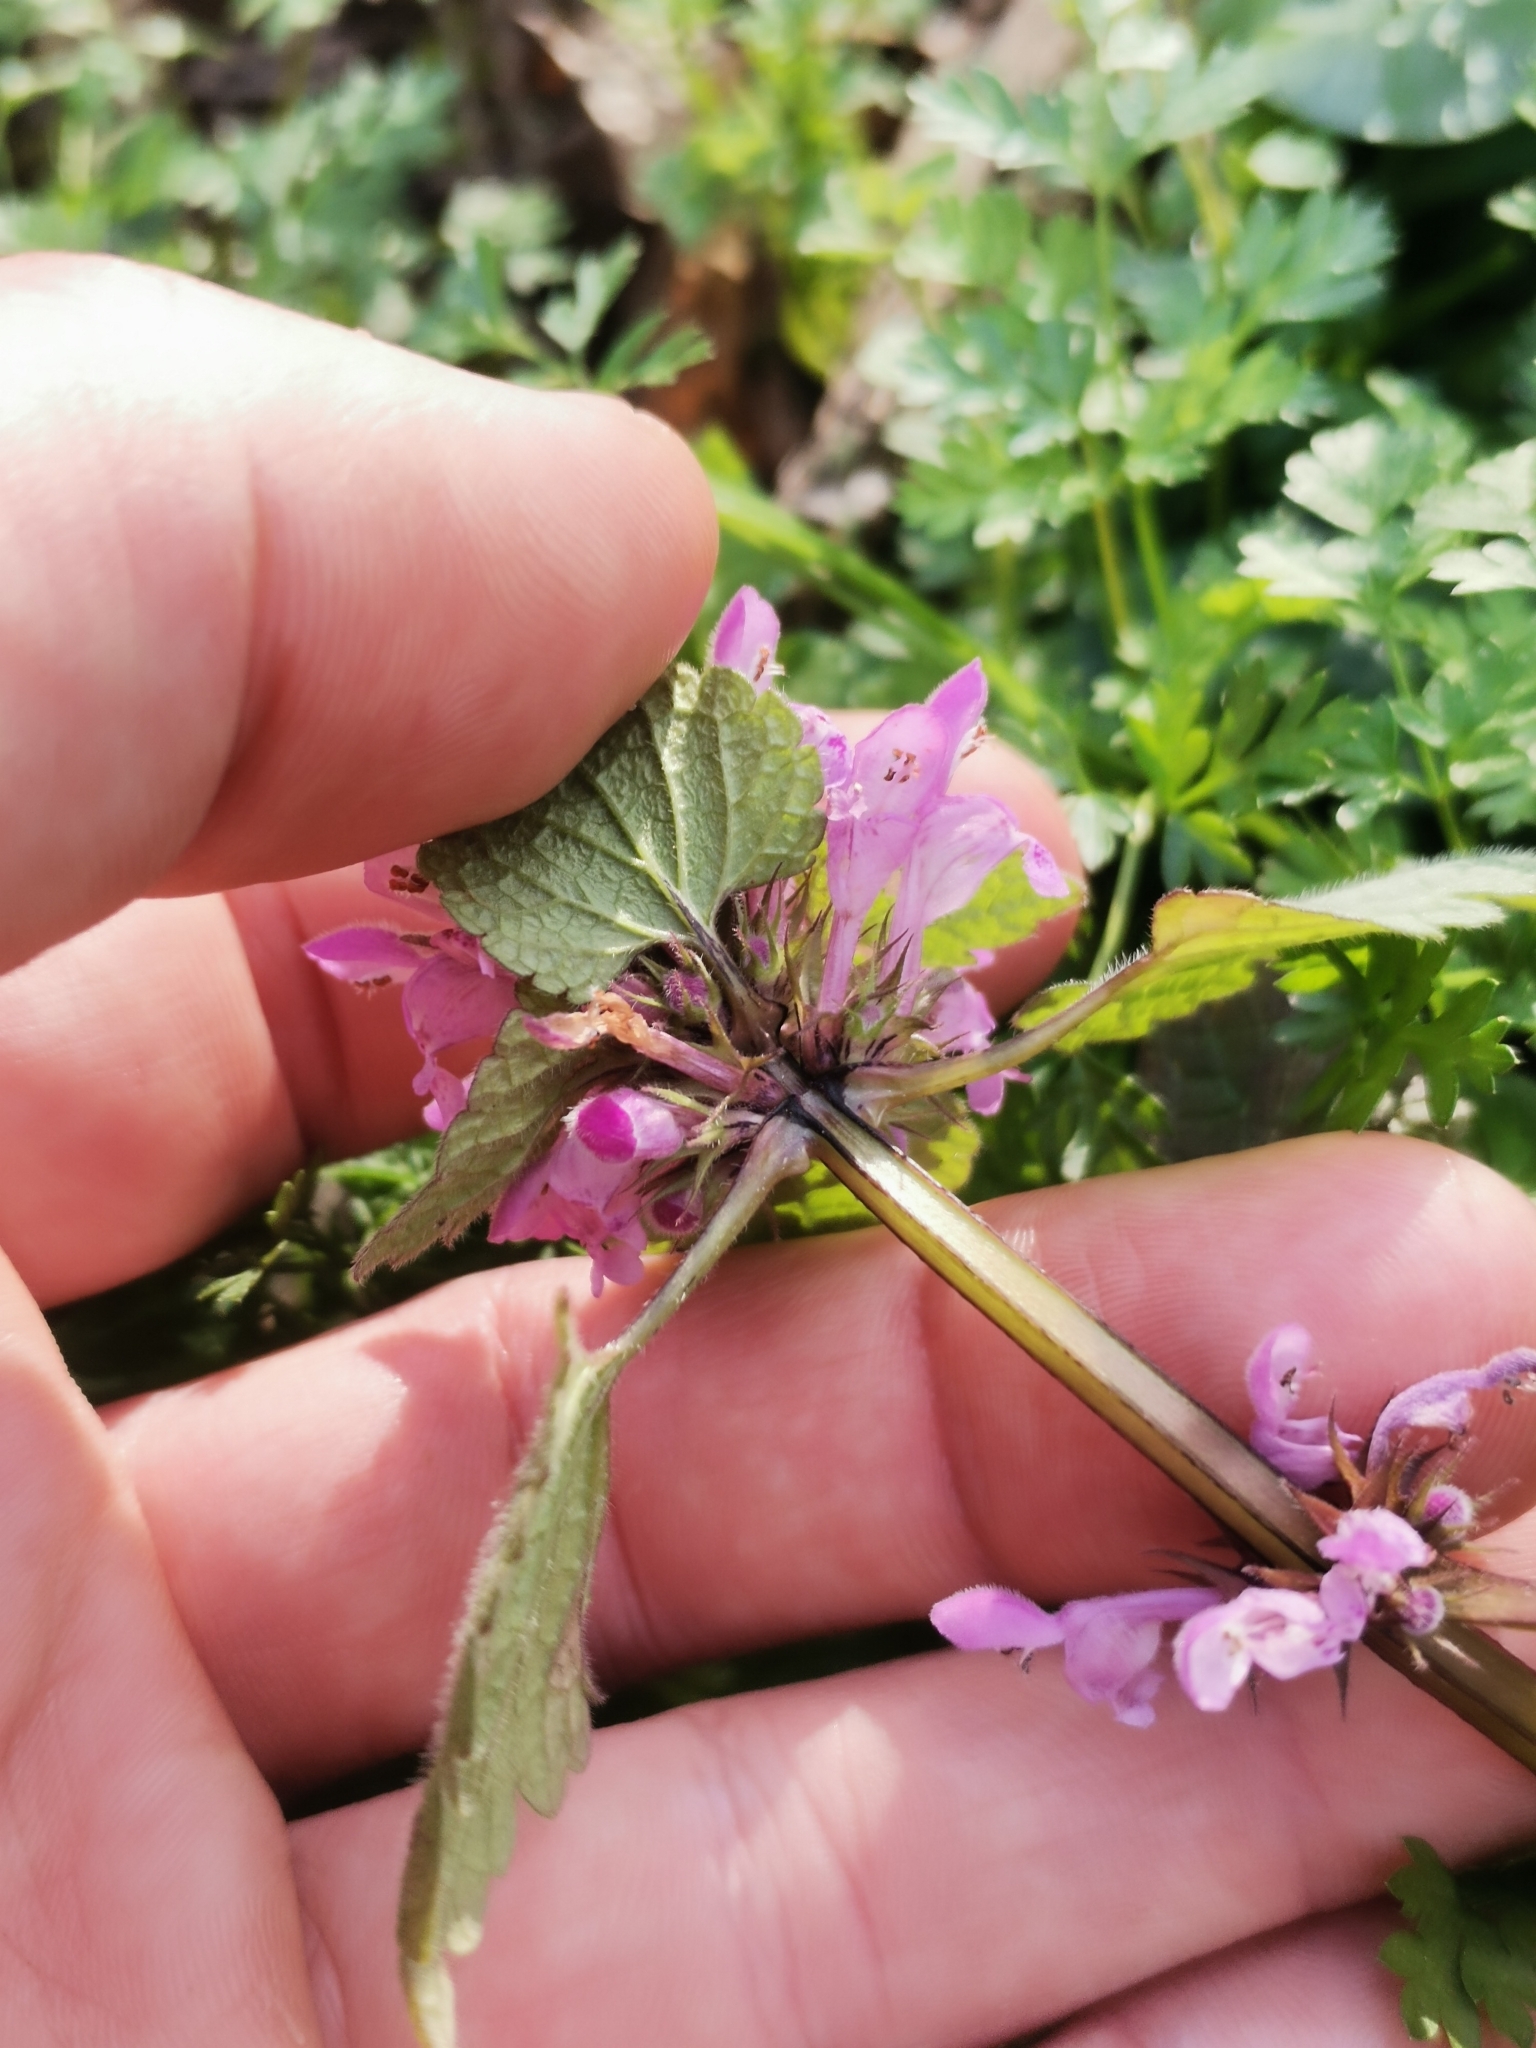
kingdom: Plantae
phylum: Tracheophyta
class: Magnoliopsida
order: Lamiales
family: Lamiaceae
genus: Lamium
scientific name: Lamium purpureum
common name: Red dead-nettle
